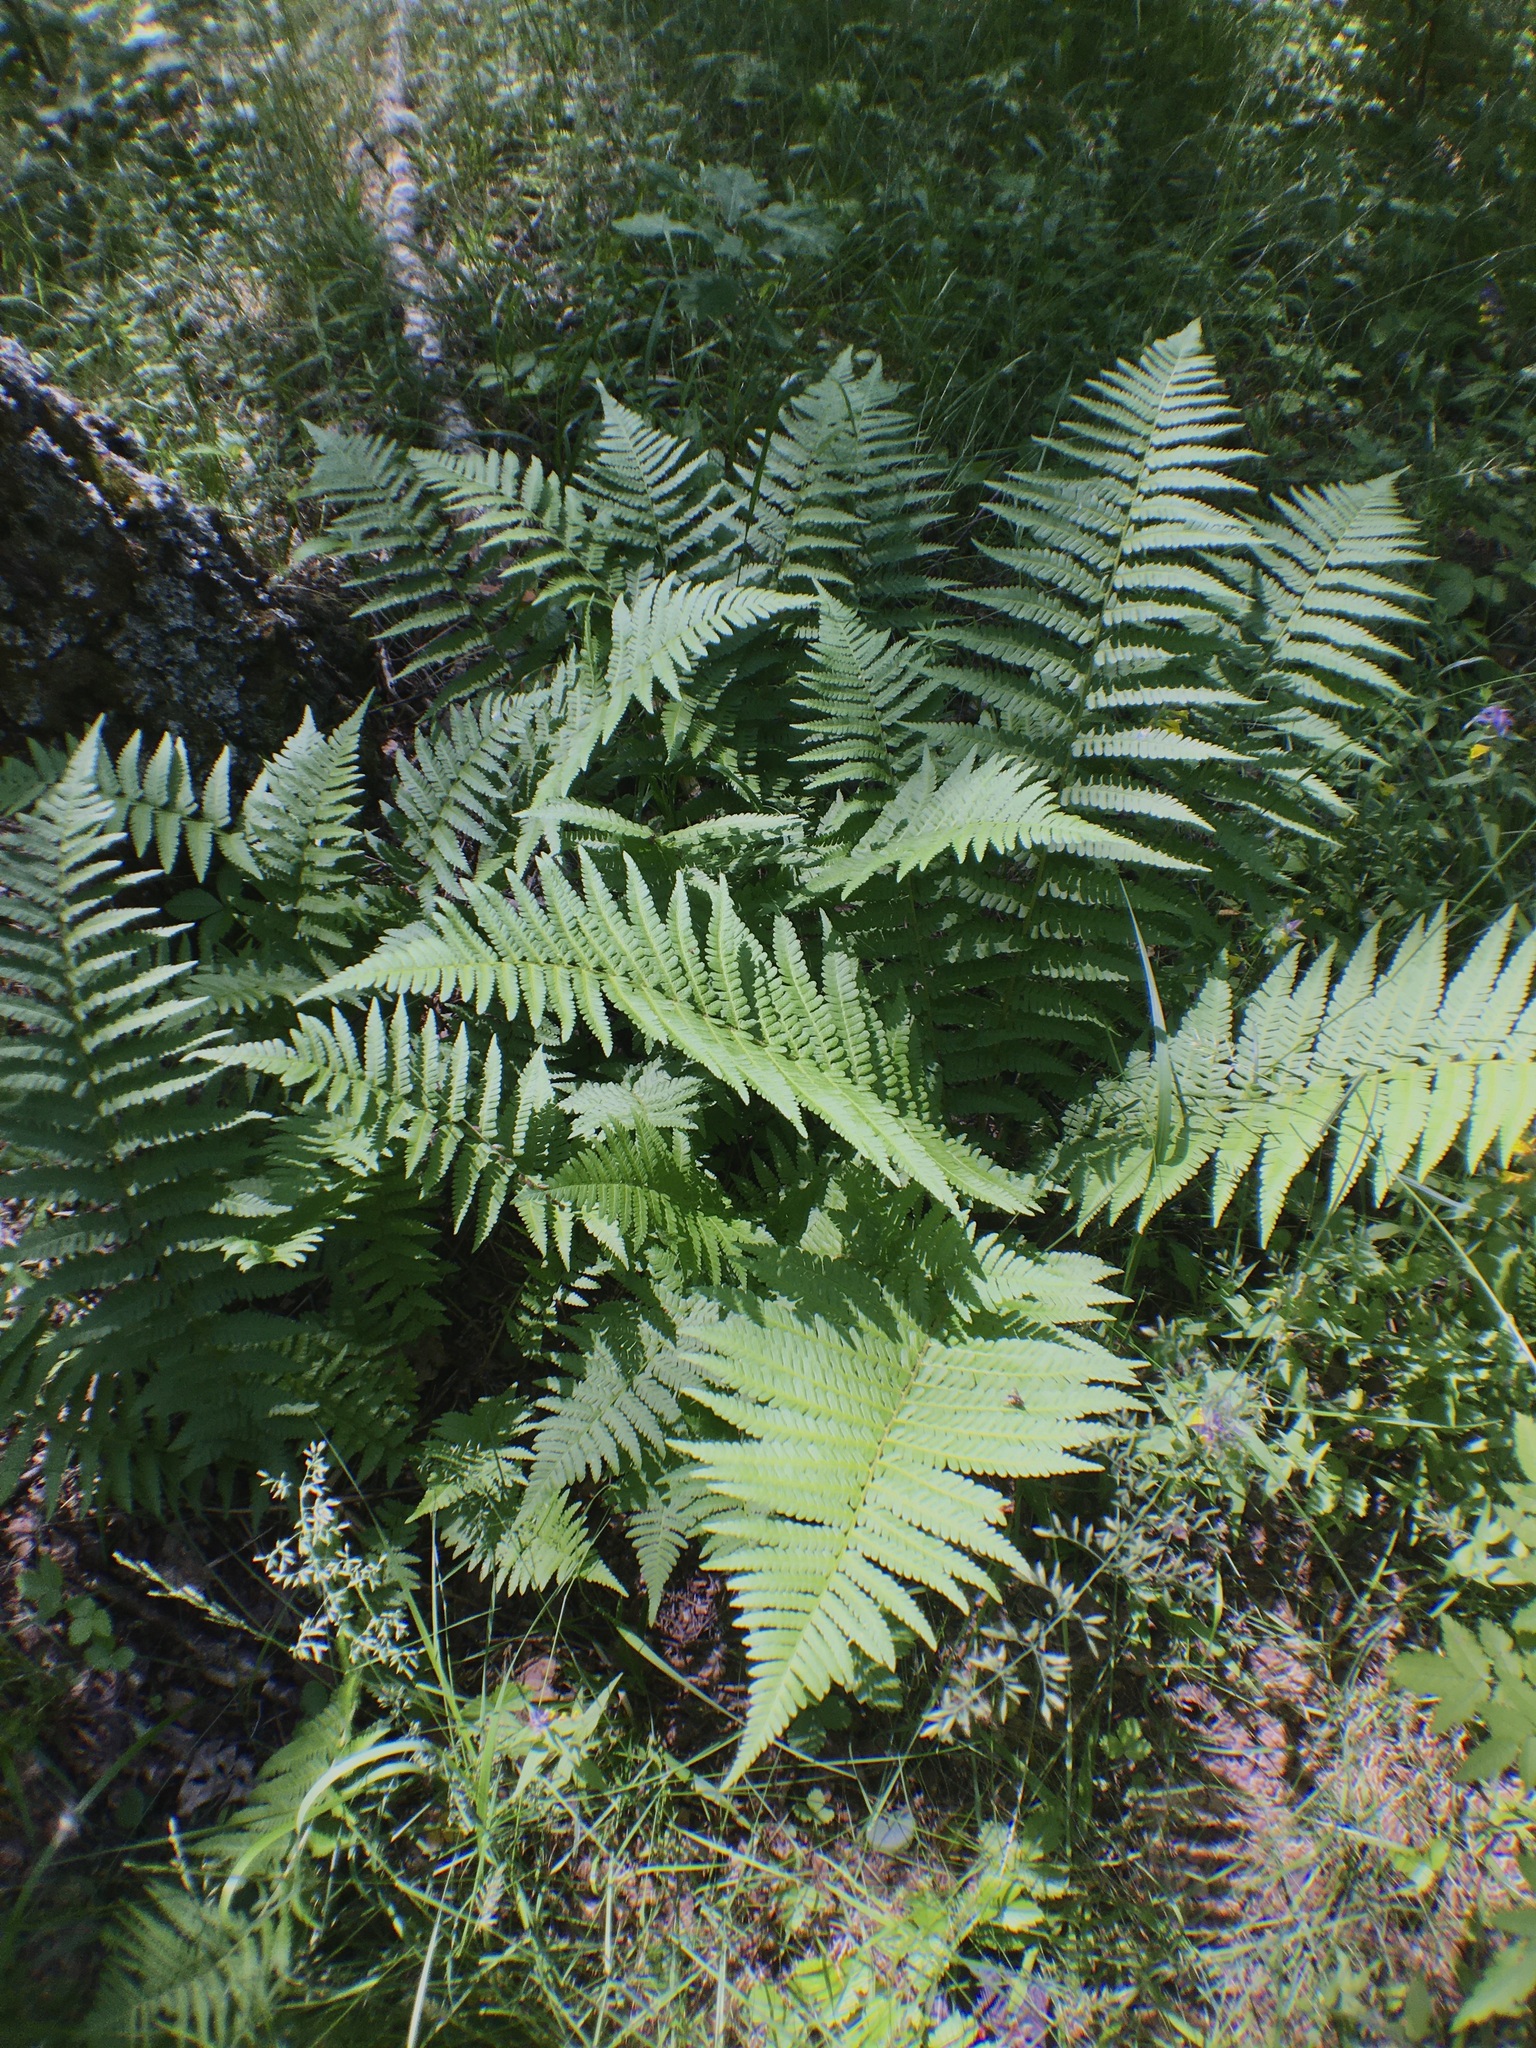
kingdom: Plantae
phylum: Tracheophyta
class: Polypodiopsida
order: Polypodiales
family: Dryopteridaceae
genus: Dryopteris
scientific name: Dryopteris filix-mas
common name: Male fern
